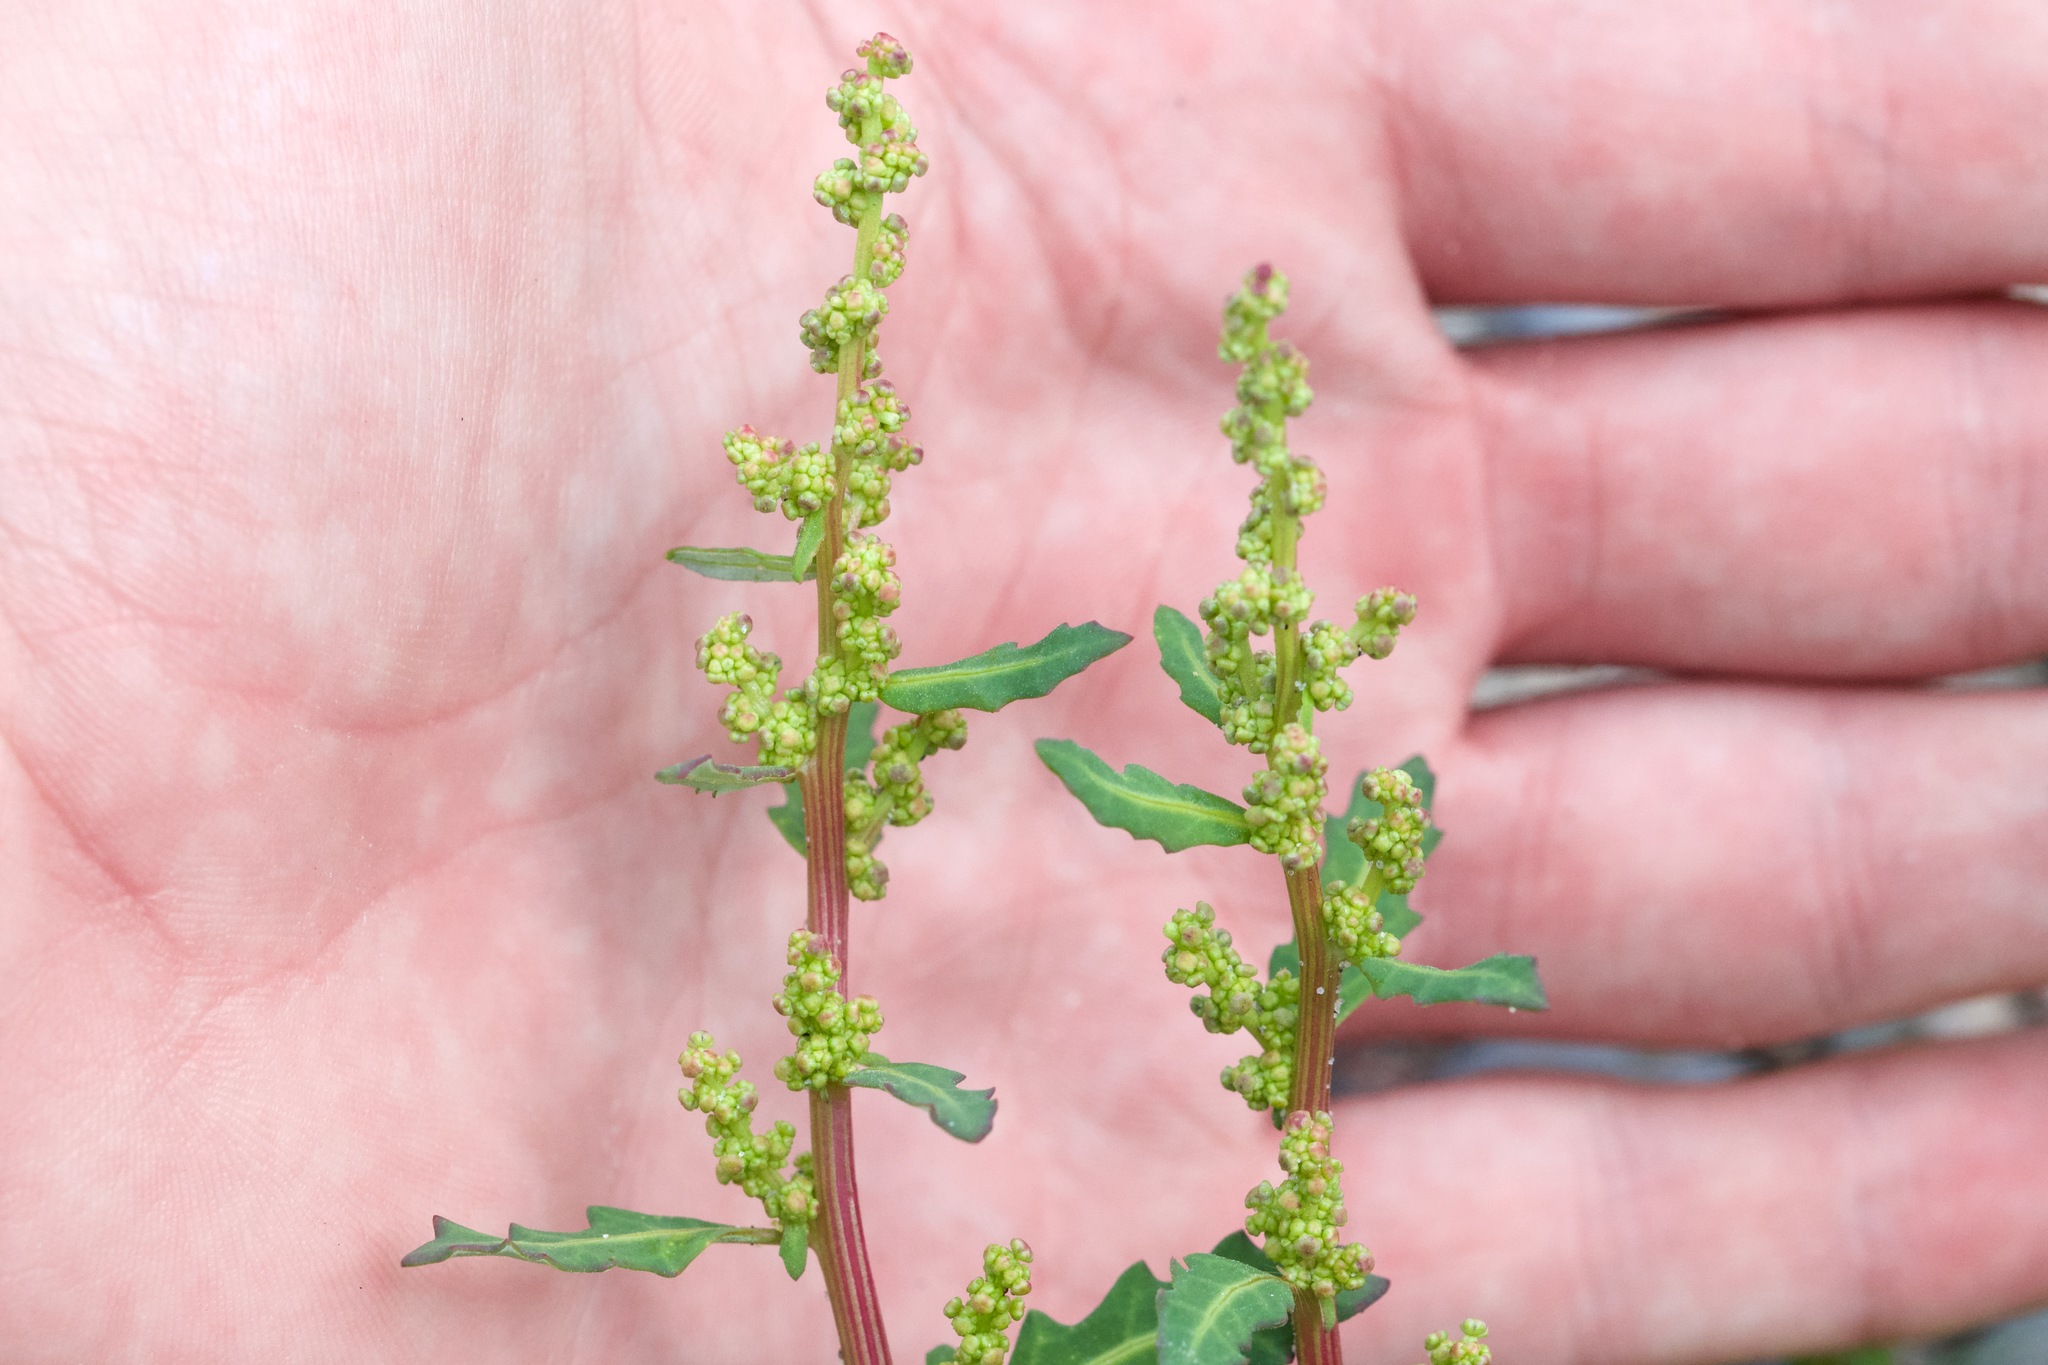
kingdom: Plantae
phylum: Tracheophyta
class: Magnoliopsida
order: Caryophyllales
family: Amaranthaceae
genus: Oxybasis
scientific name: Oxybasis glauca
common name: Glaucous goosefoot
